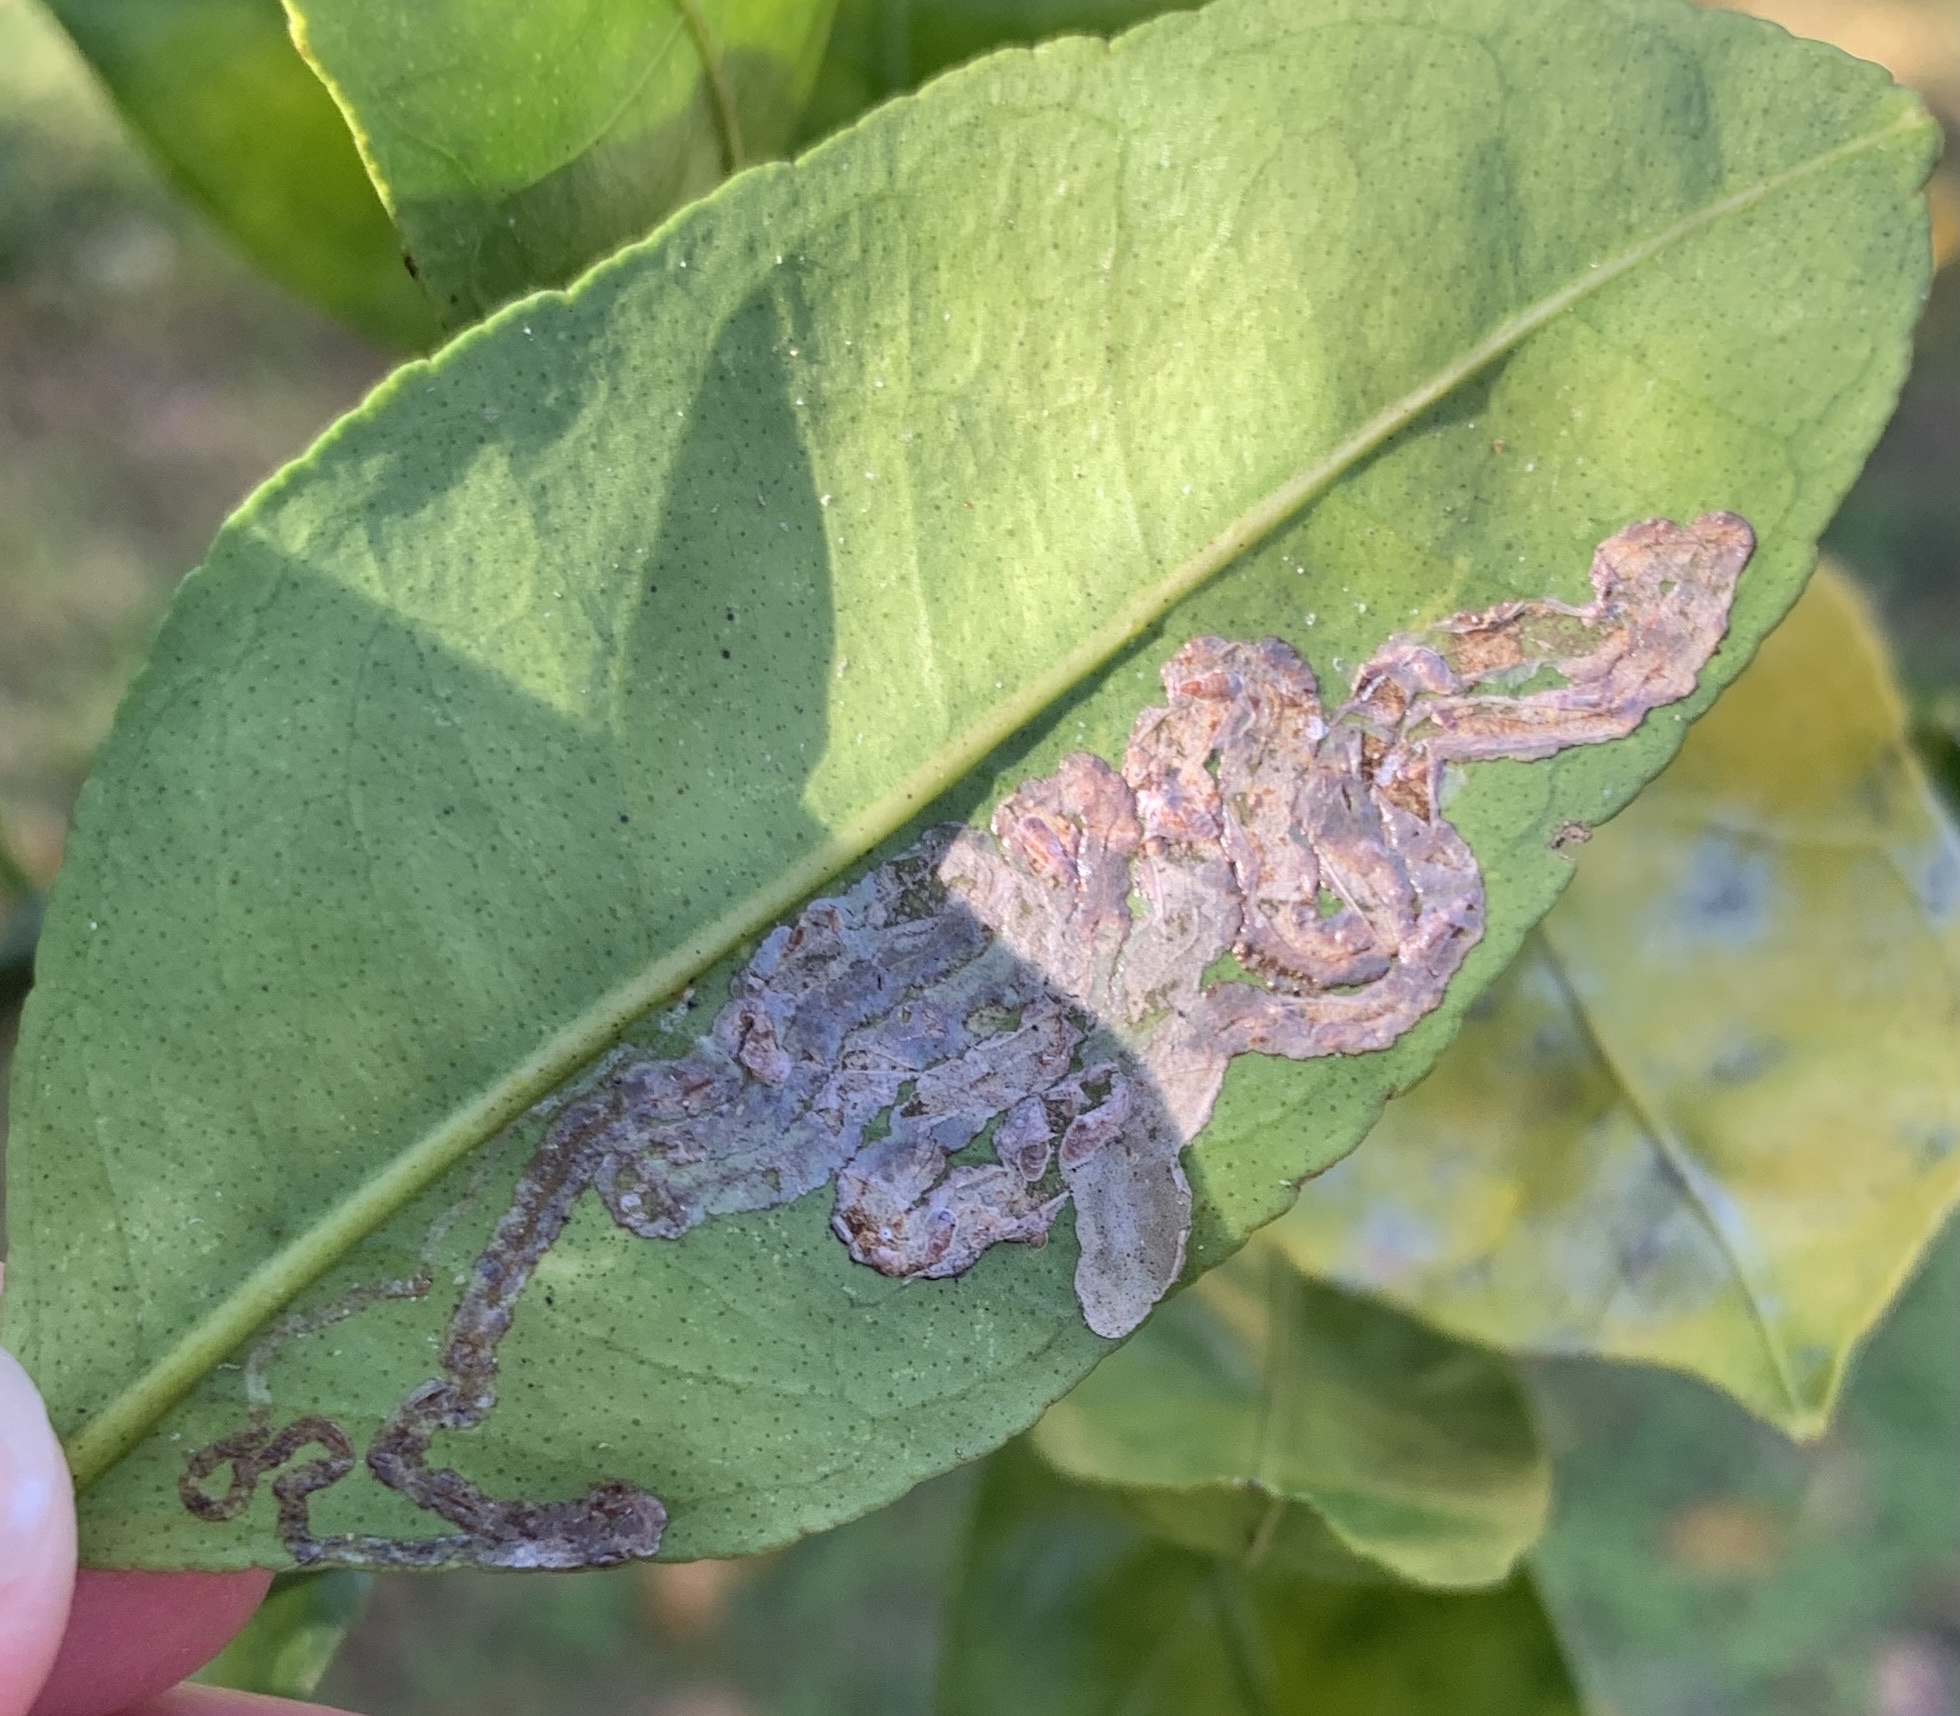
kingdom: Animalia
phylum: Arthropoda
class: Insecta
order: Lepidoptera
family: Gracillariidae
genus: Phyllocnistis
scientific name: Phyllocnistis citrella
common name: Citrus leafminer
